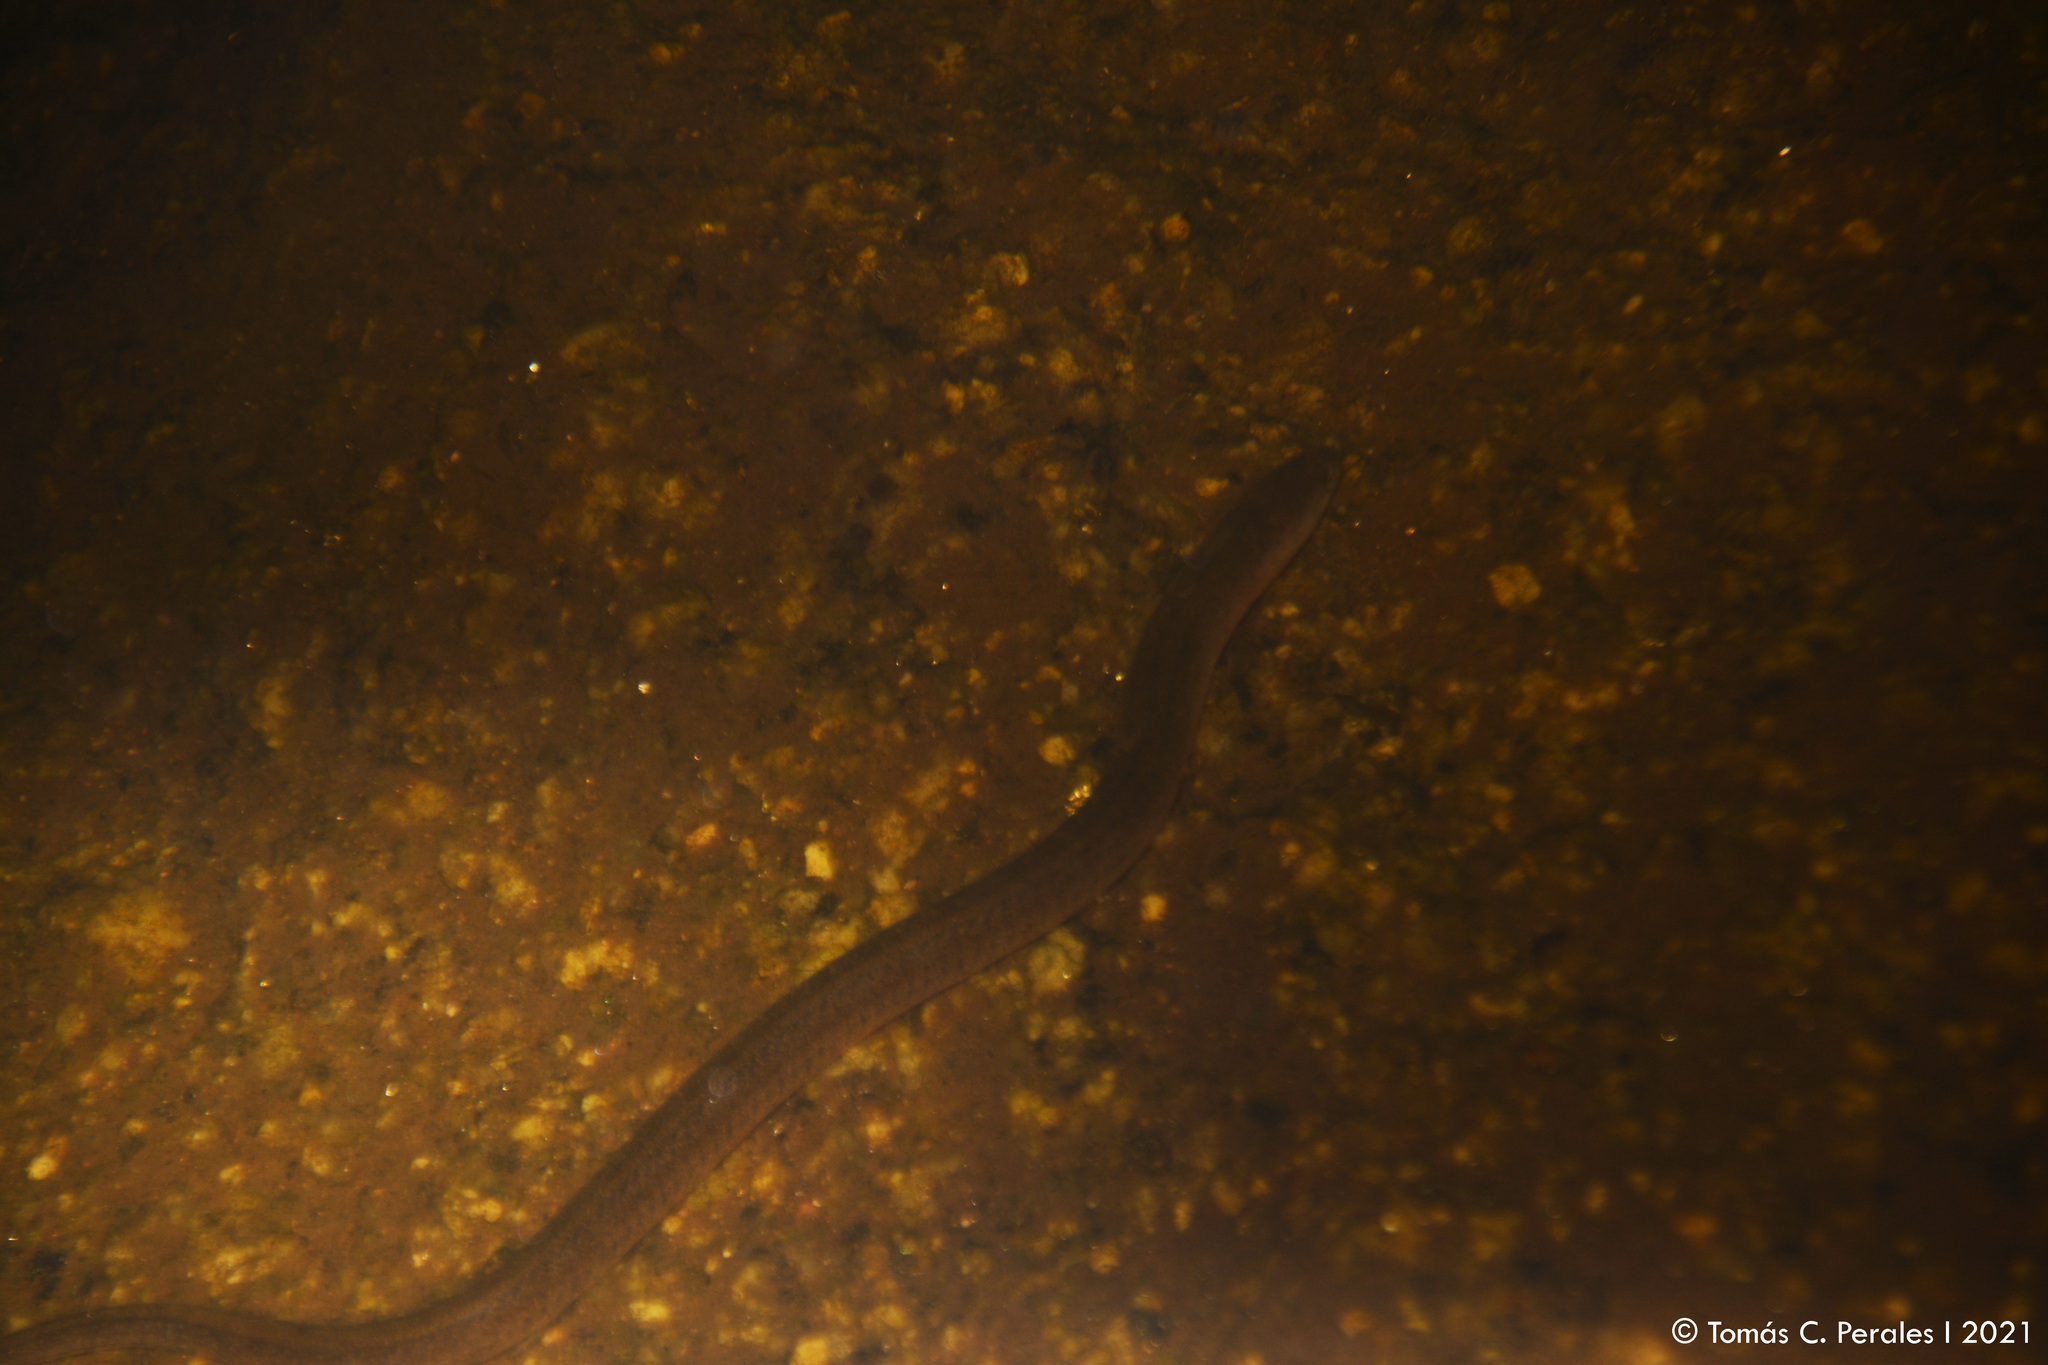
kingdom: Animalia
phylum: Chordata
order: Synbranchiformes
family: Synbranchidae
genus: Synbranchus
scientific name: Synbranchus marmoratus
